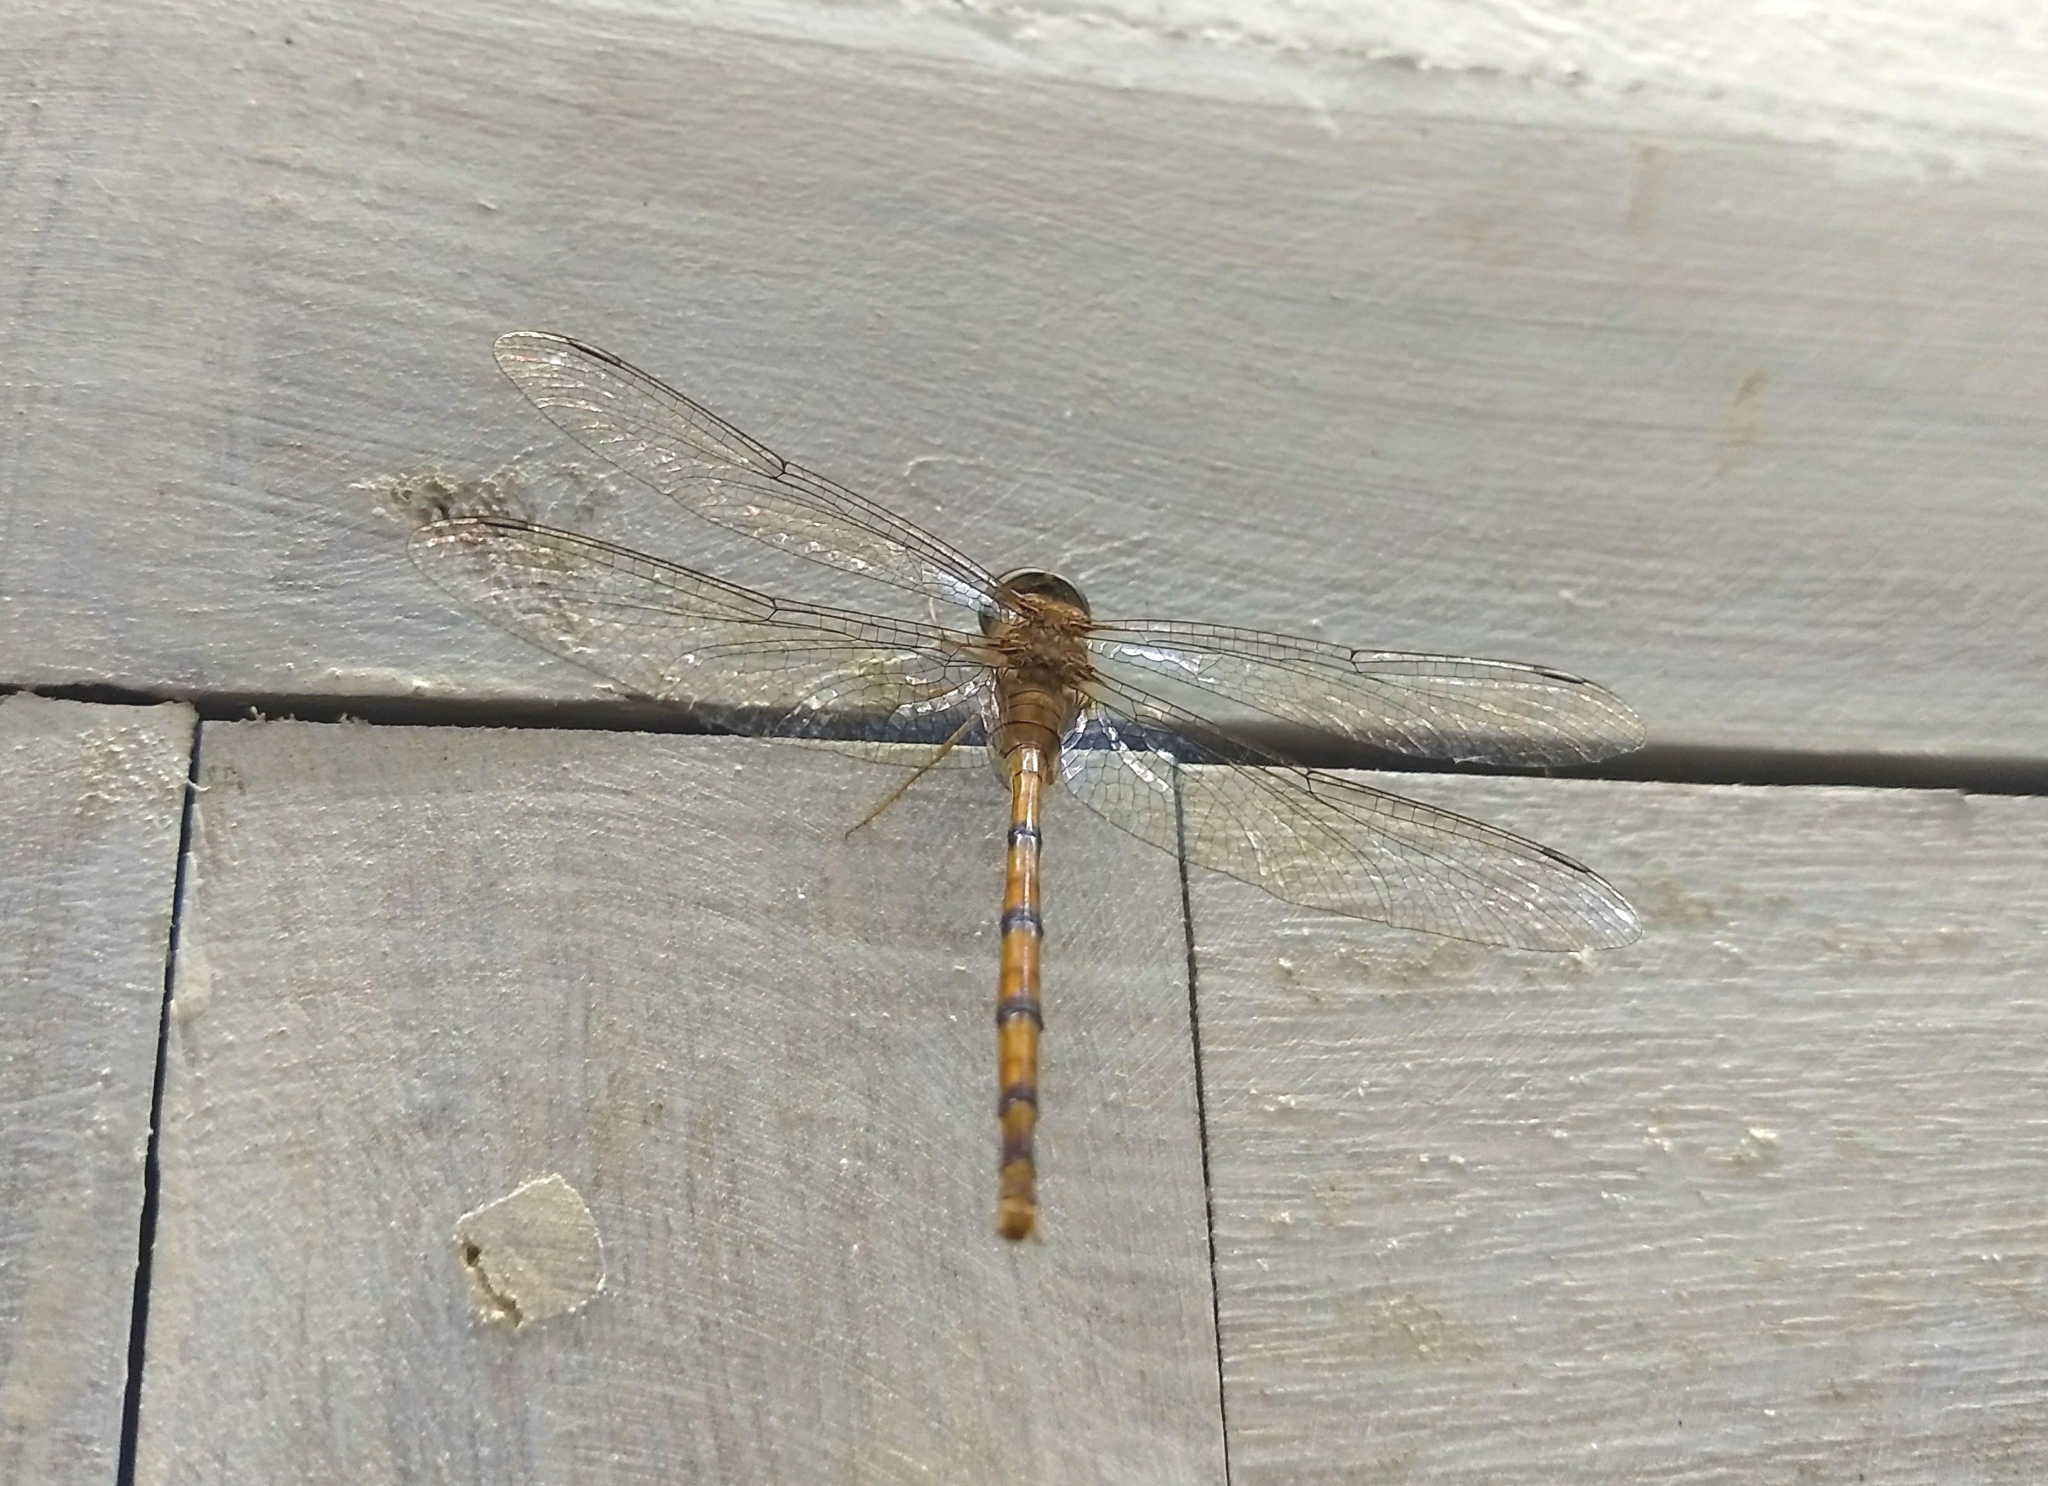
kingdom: Animalia
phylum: Arthropoda
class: Insecta
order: Odonata
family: Libellulidae
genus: Zyxomma
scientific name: Zyxomma petiolatum
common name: Dingy dusk-darter
